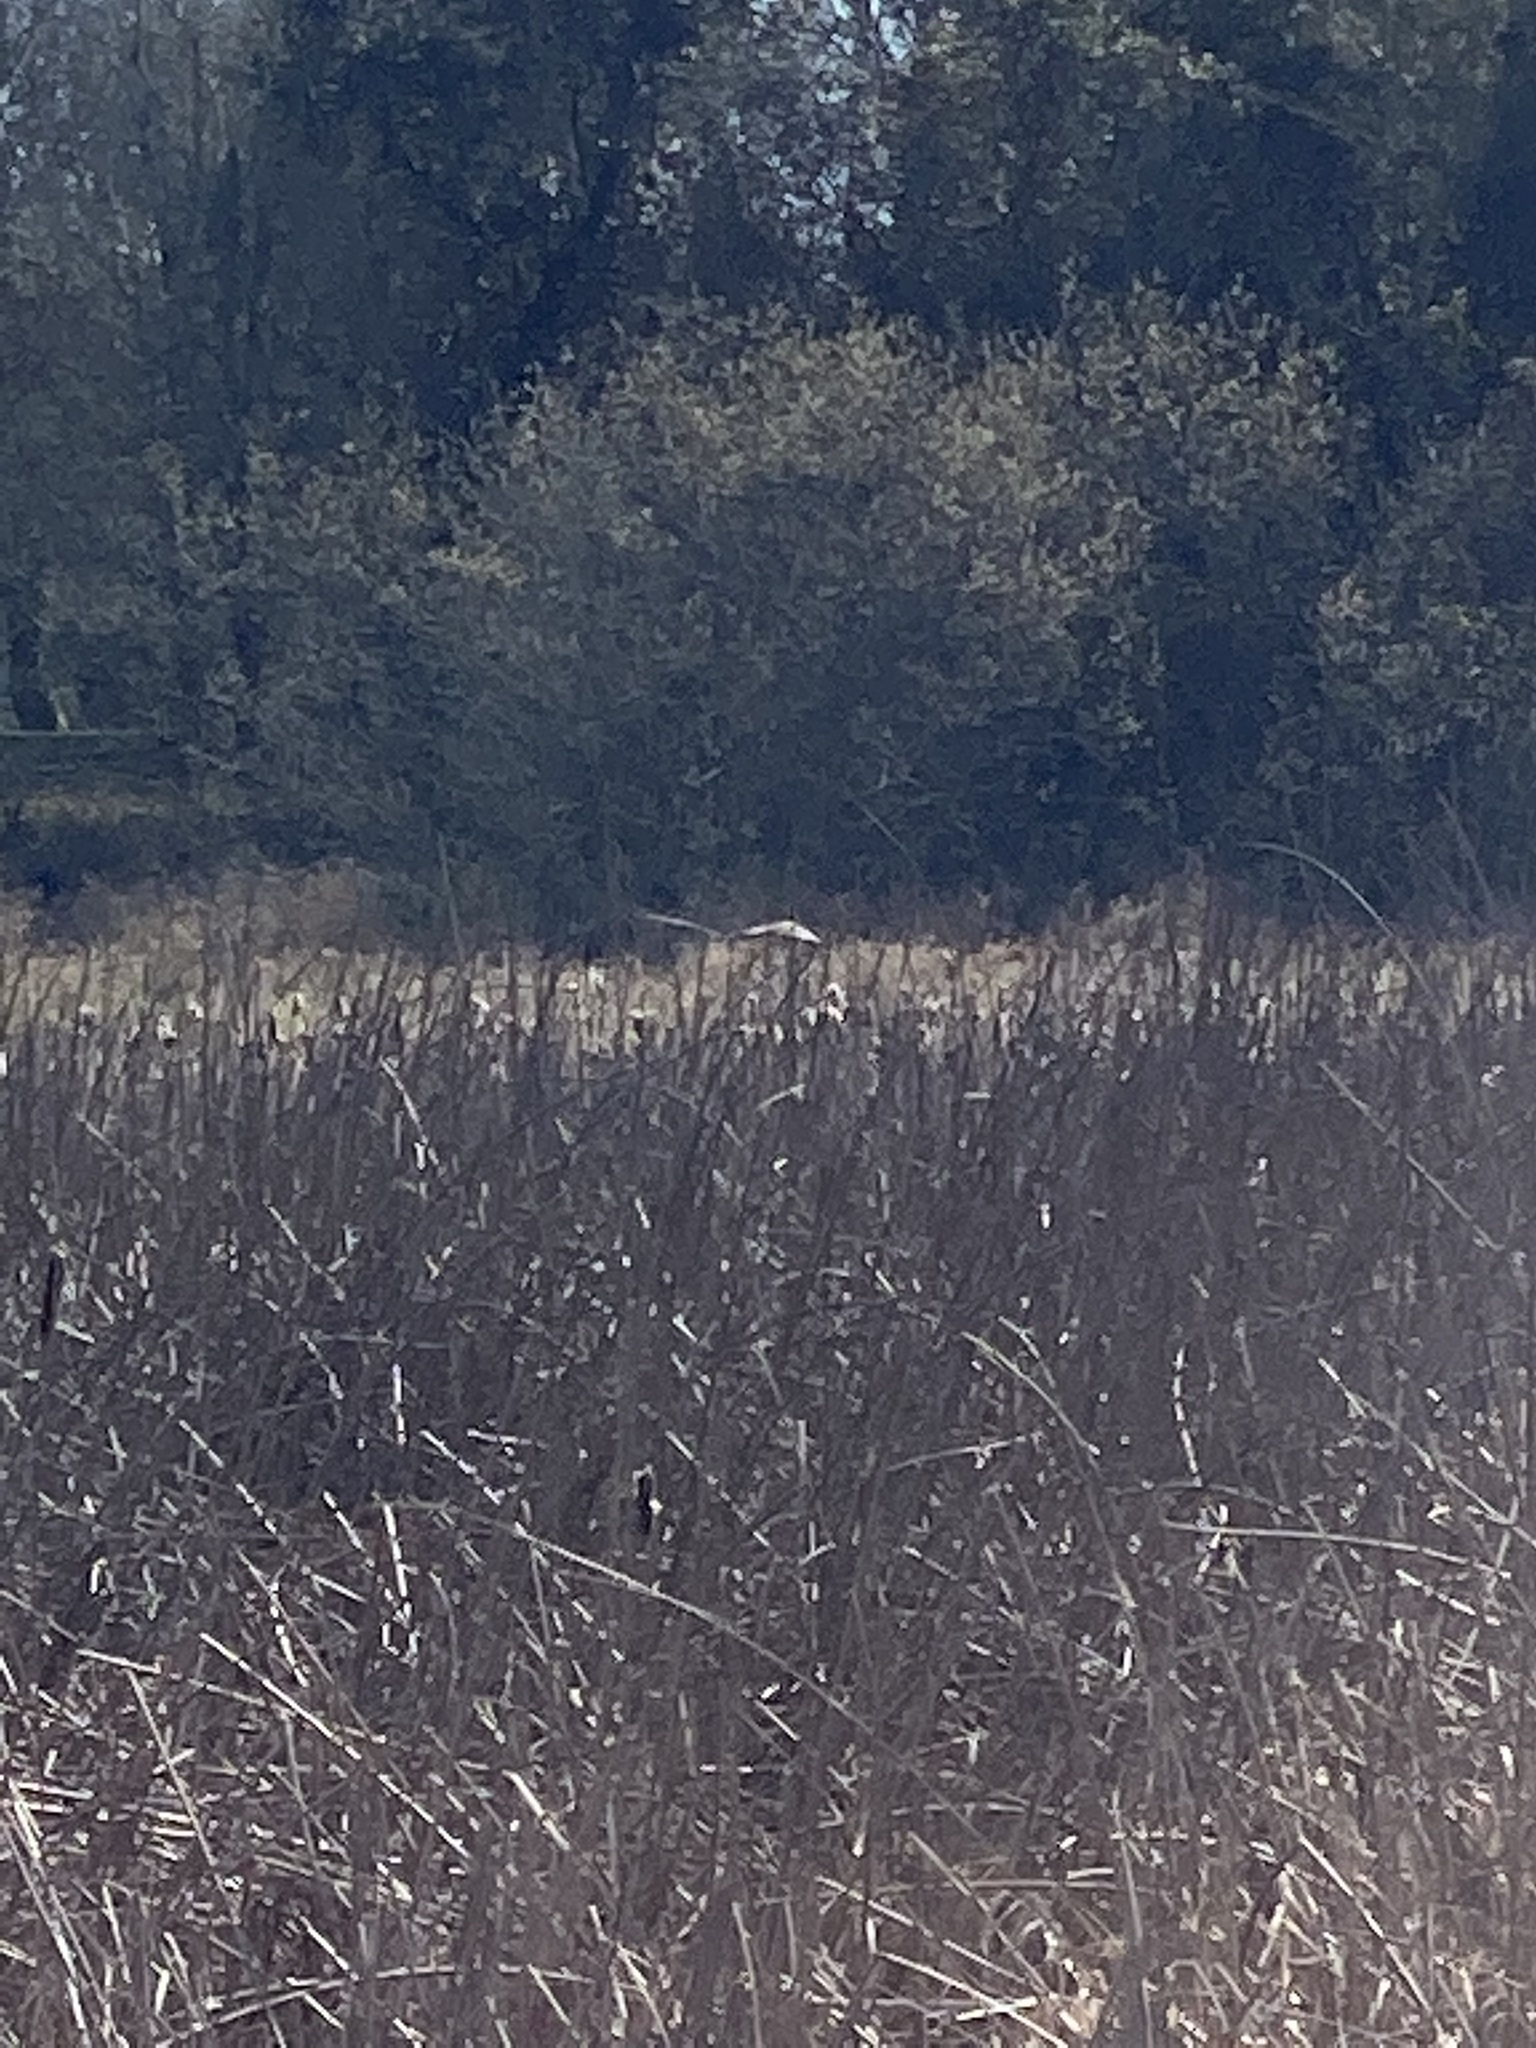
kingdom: Animalia
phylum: Chordata
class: Aves
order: Accipitriformes
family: Accipitridae
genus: Circus
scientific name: Circus cyaneus
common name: Hen harrier
